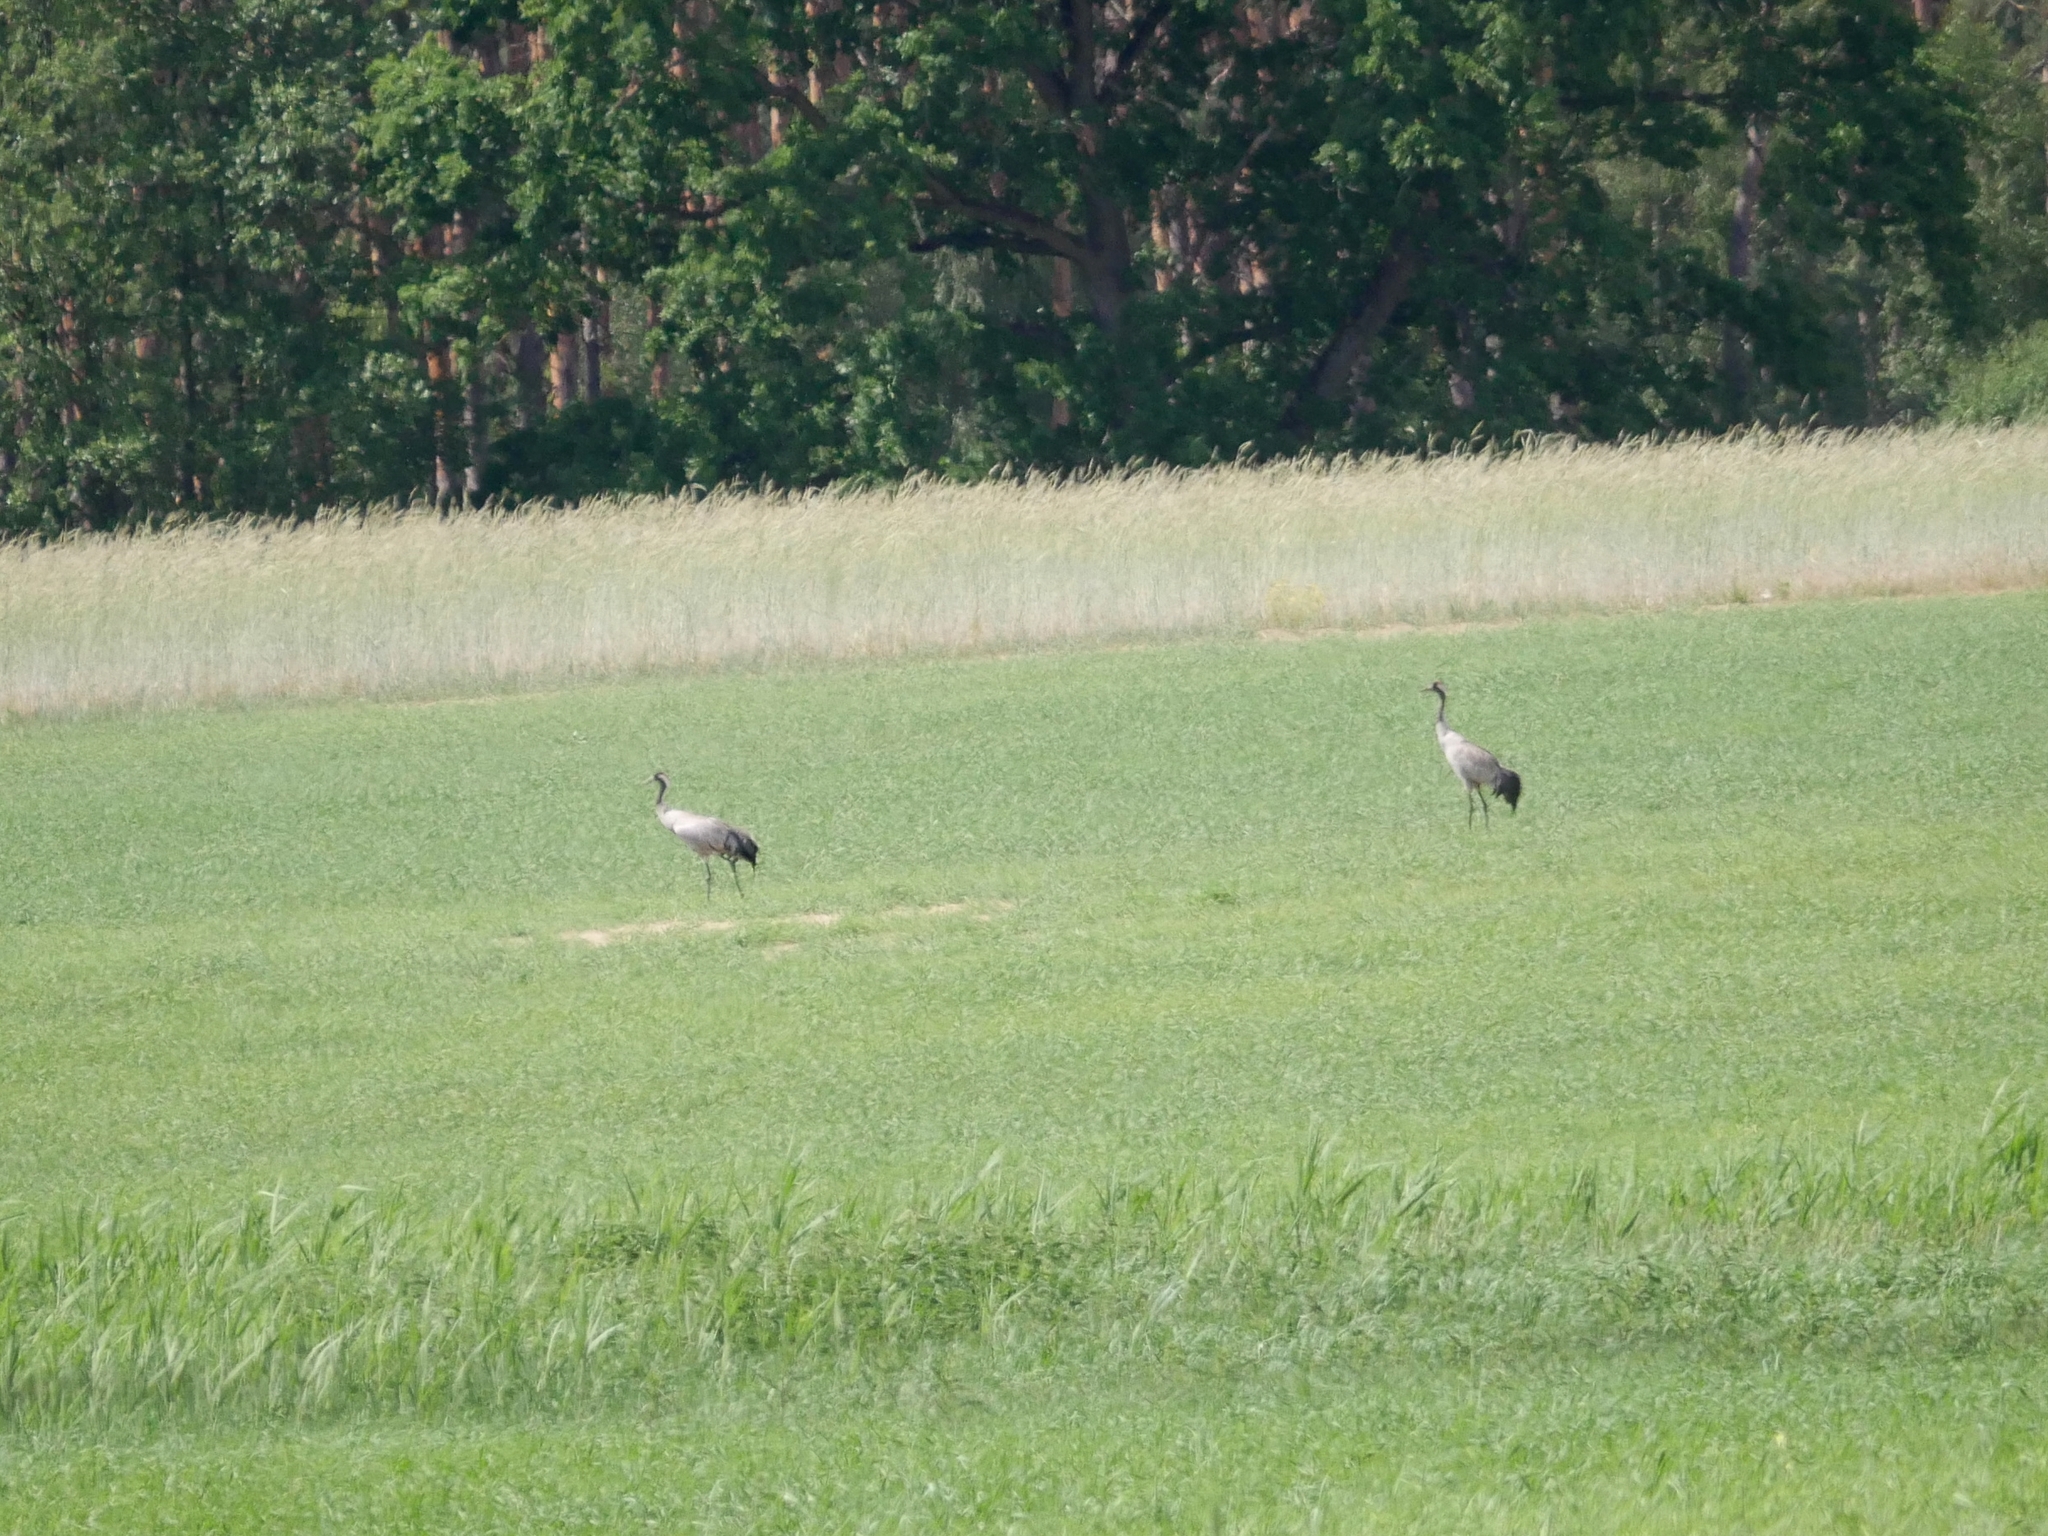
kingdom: Animalia
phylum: Chordata
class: Aves
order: Gruiformes
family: Gruidae
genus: Grus
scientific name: Grus grus
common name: Common crane
